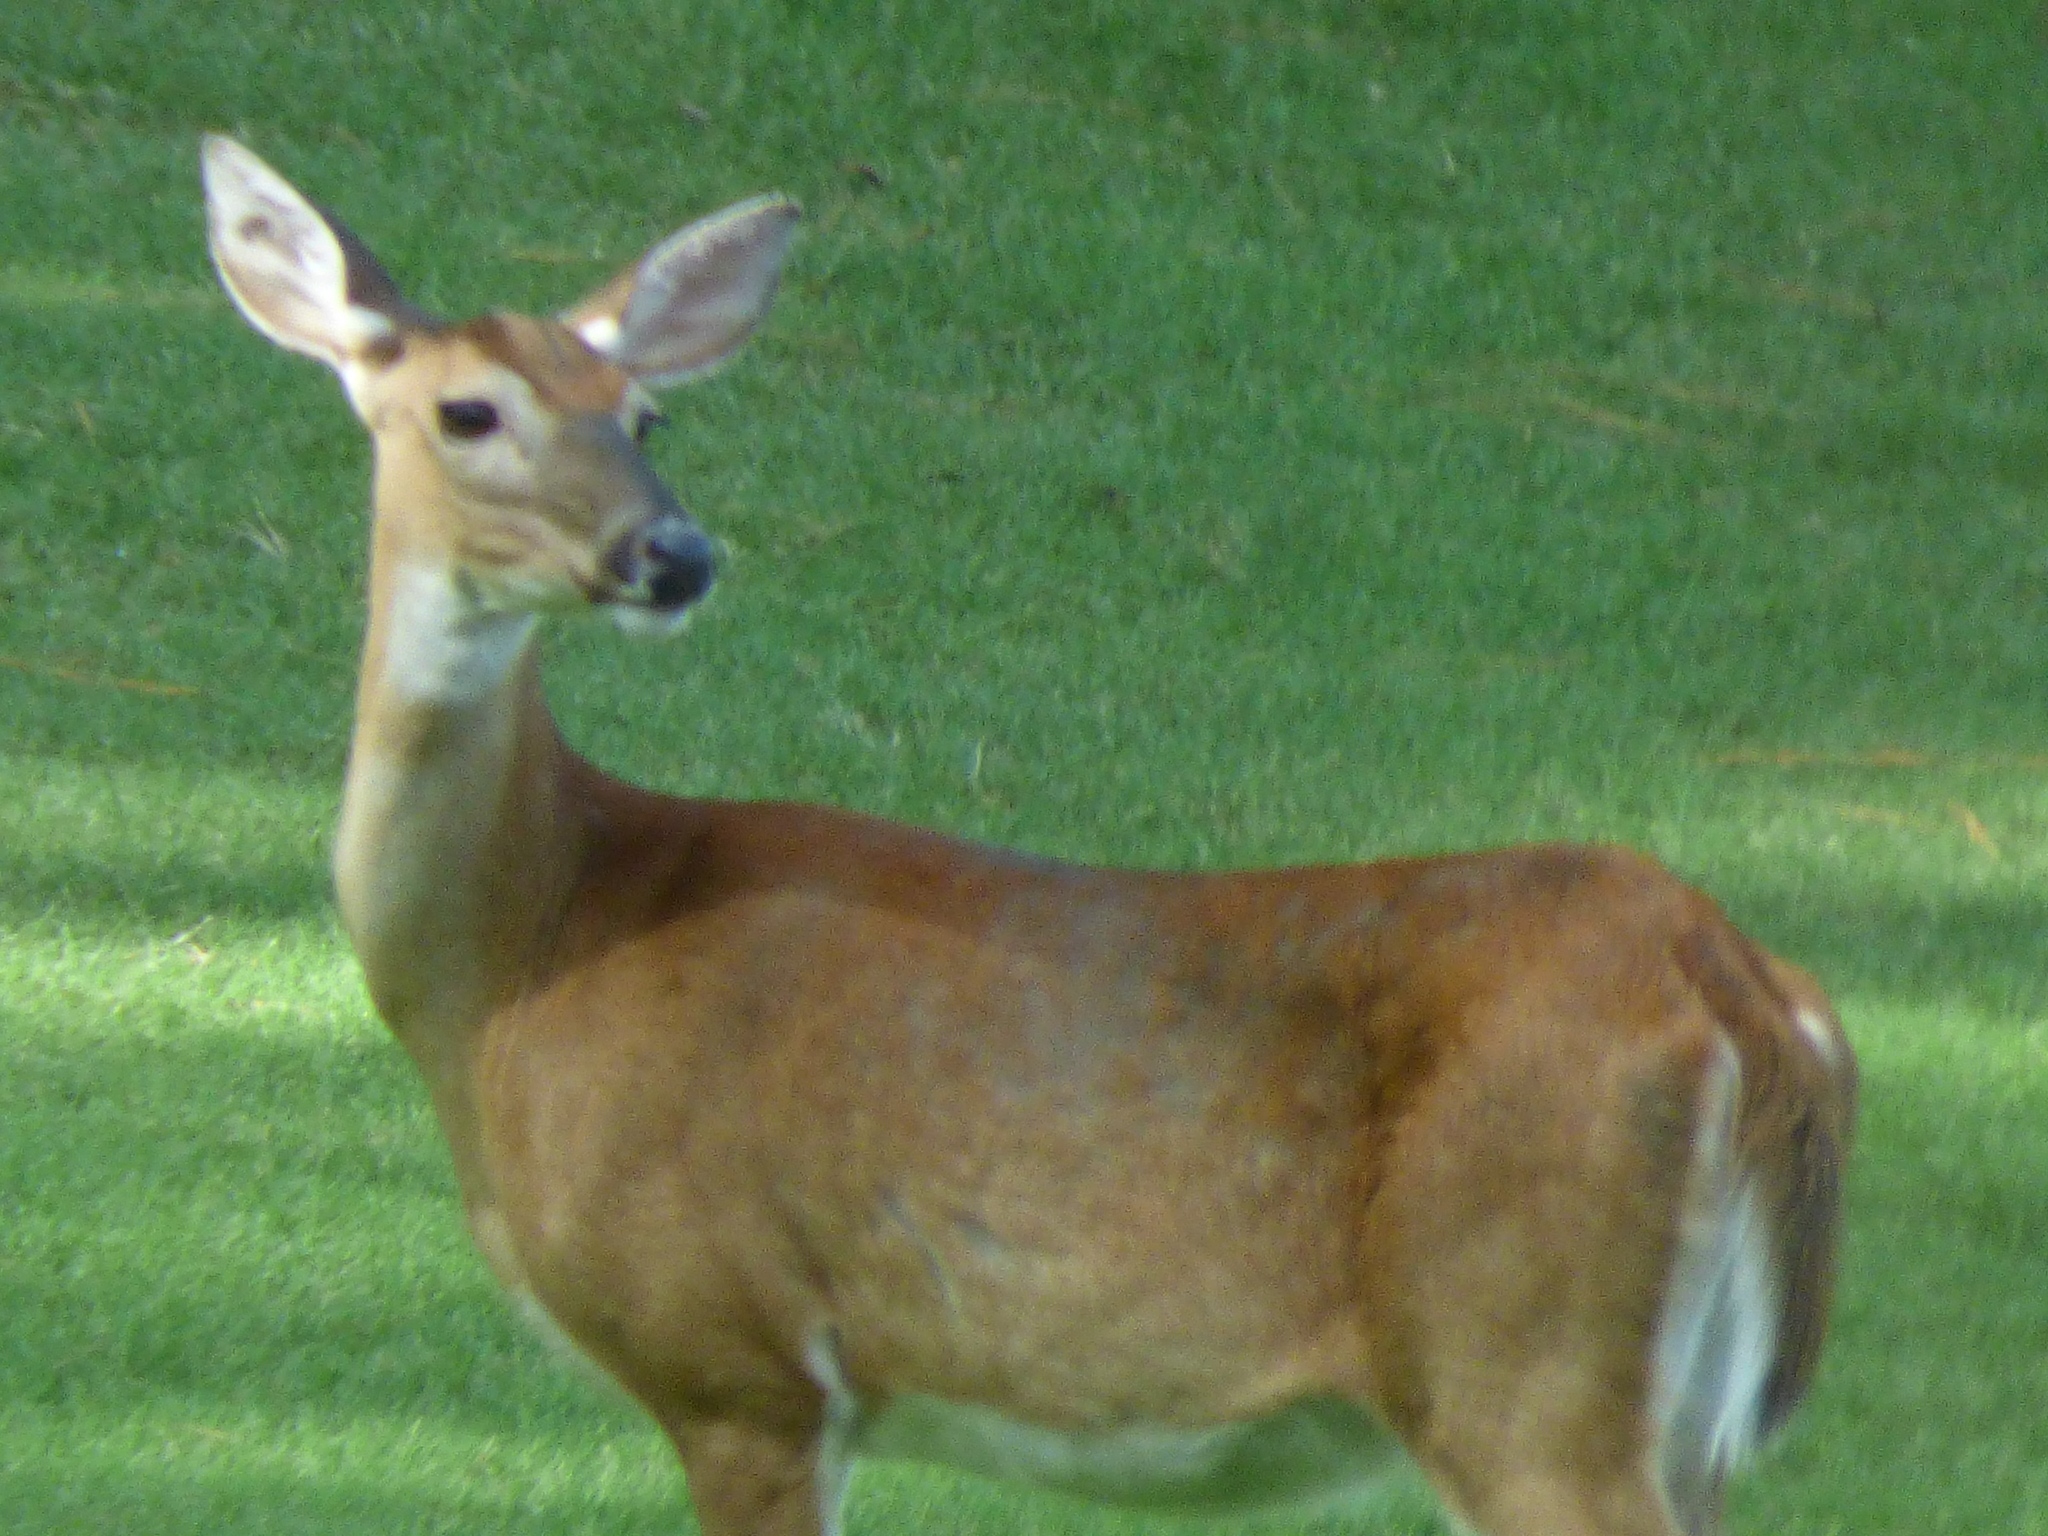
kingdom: Animalia
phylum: Chordata
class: Mammalia
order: Artiodactyla
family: Cervidae
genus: Odocoileus
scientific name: Odocoileus virginianus
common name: White-tailed deer
